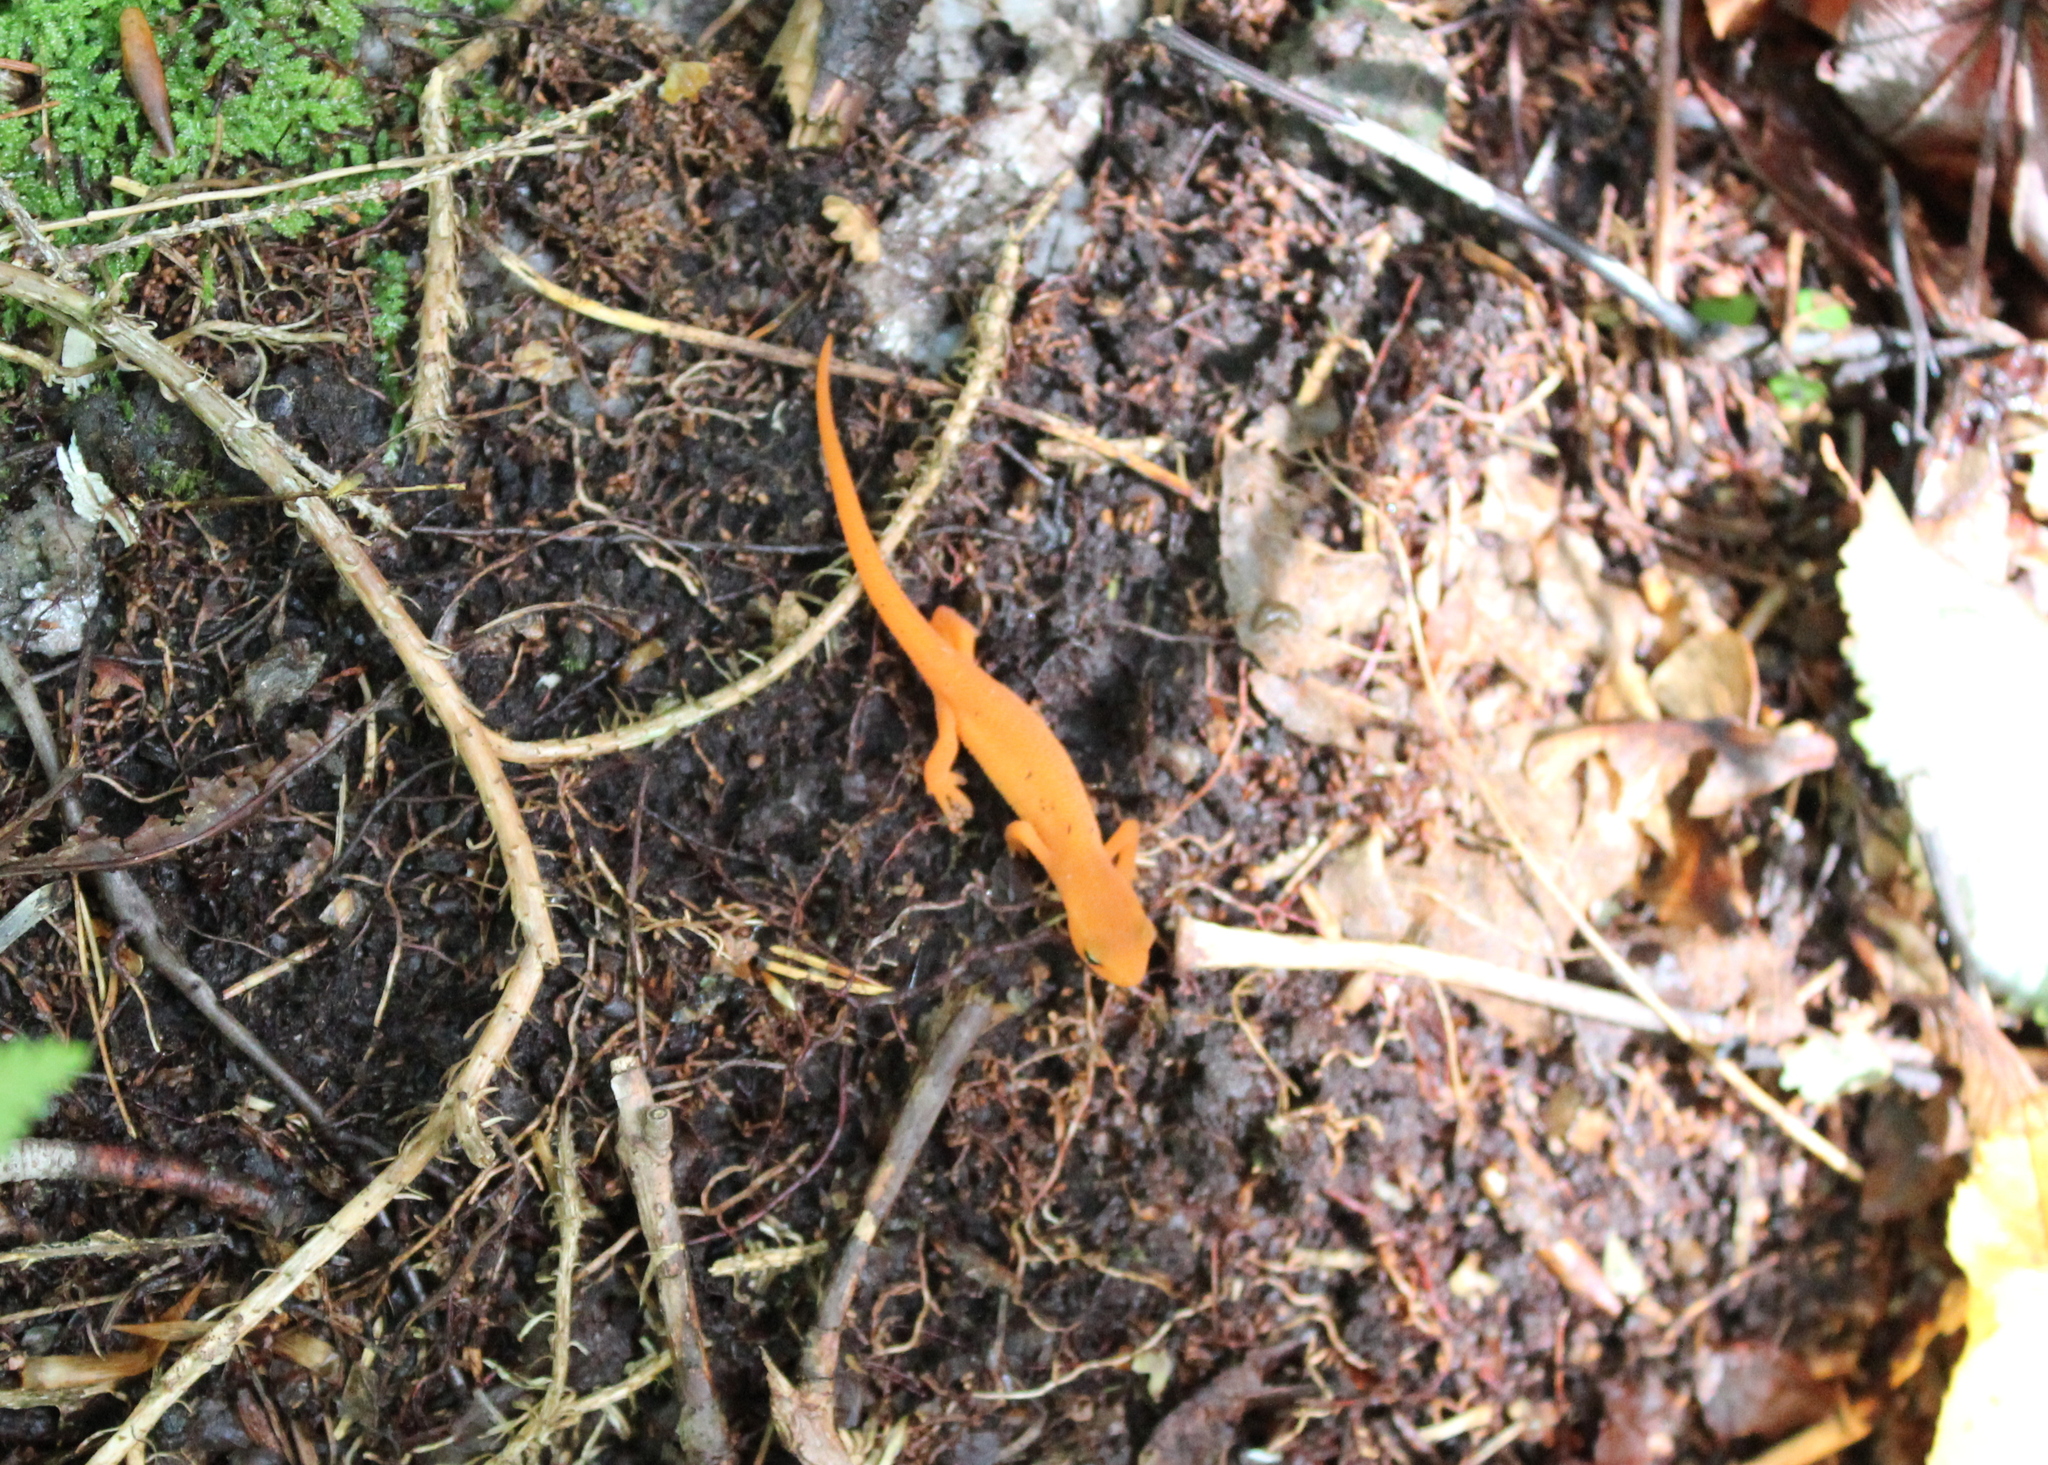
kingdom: Animalia
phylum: Chordata
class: Amphibia
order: Caudata
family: Salamandridae
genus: Notophthalmus
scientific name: Notophthalmus viridescens
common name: Eastern newt
